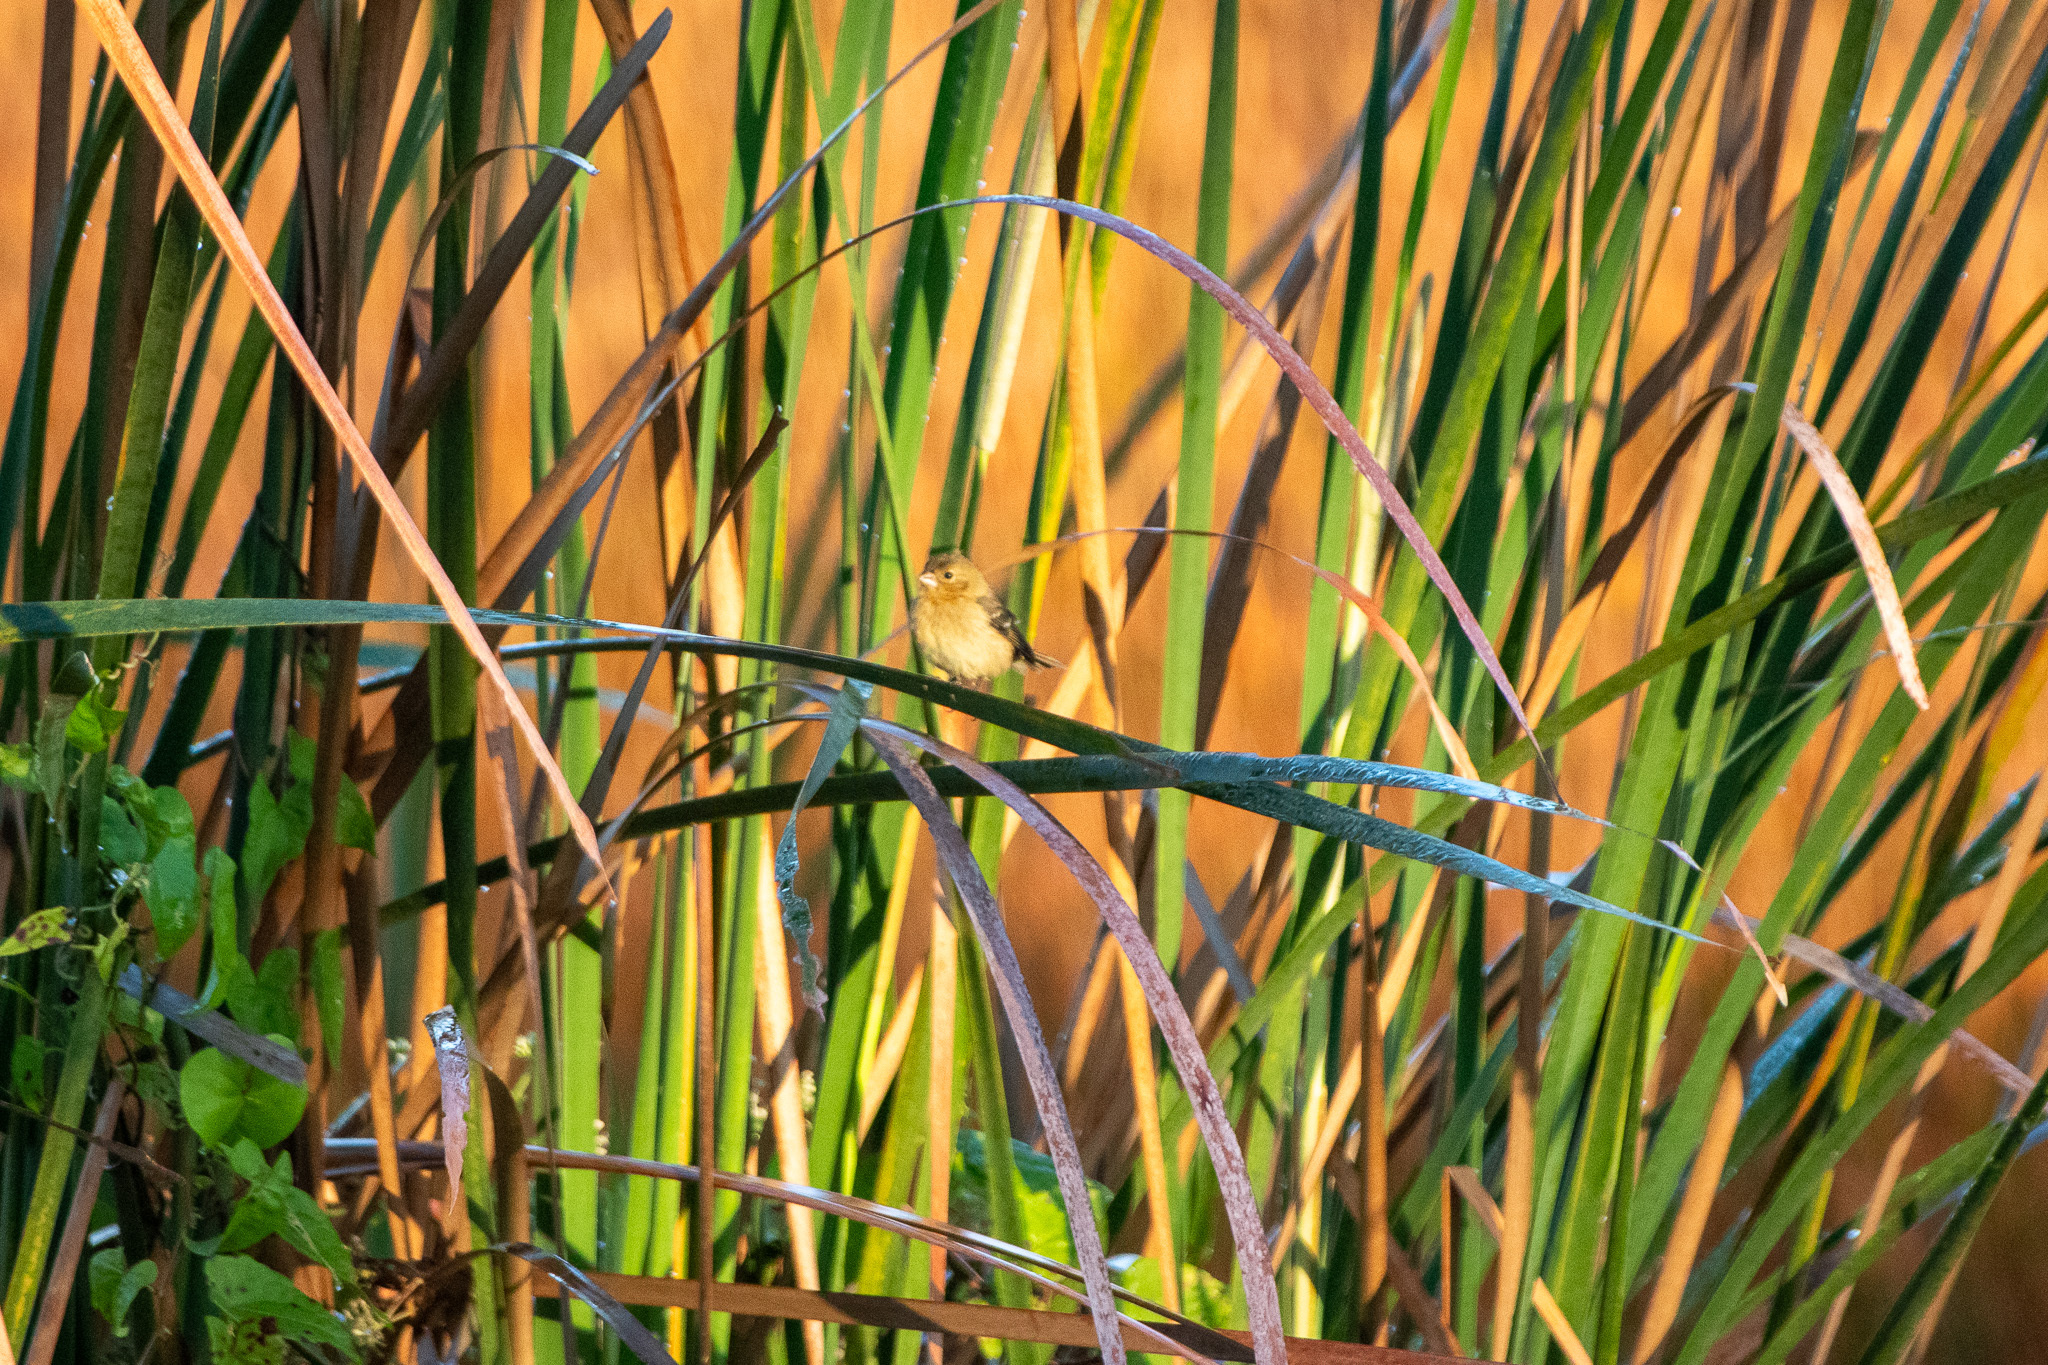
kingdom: Animalia
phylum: Chordata
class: Aves
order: Passeriformes
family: Thraupidae
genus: Sporophila
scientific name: Sporophila morelleti
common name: Morelet's seedeater
